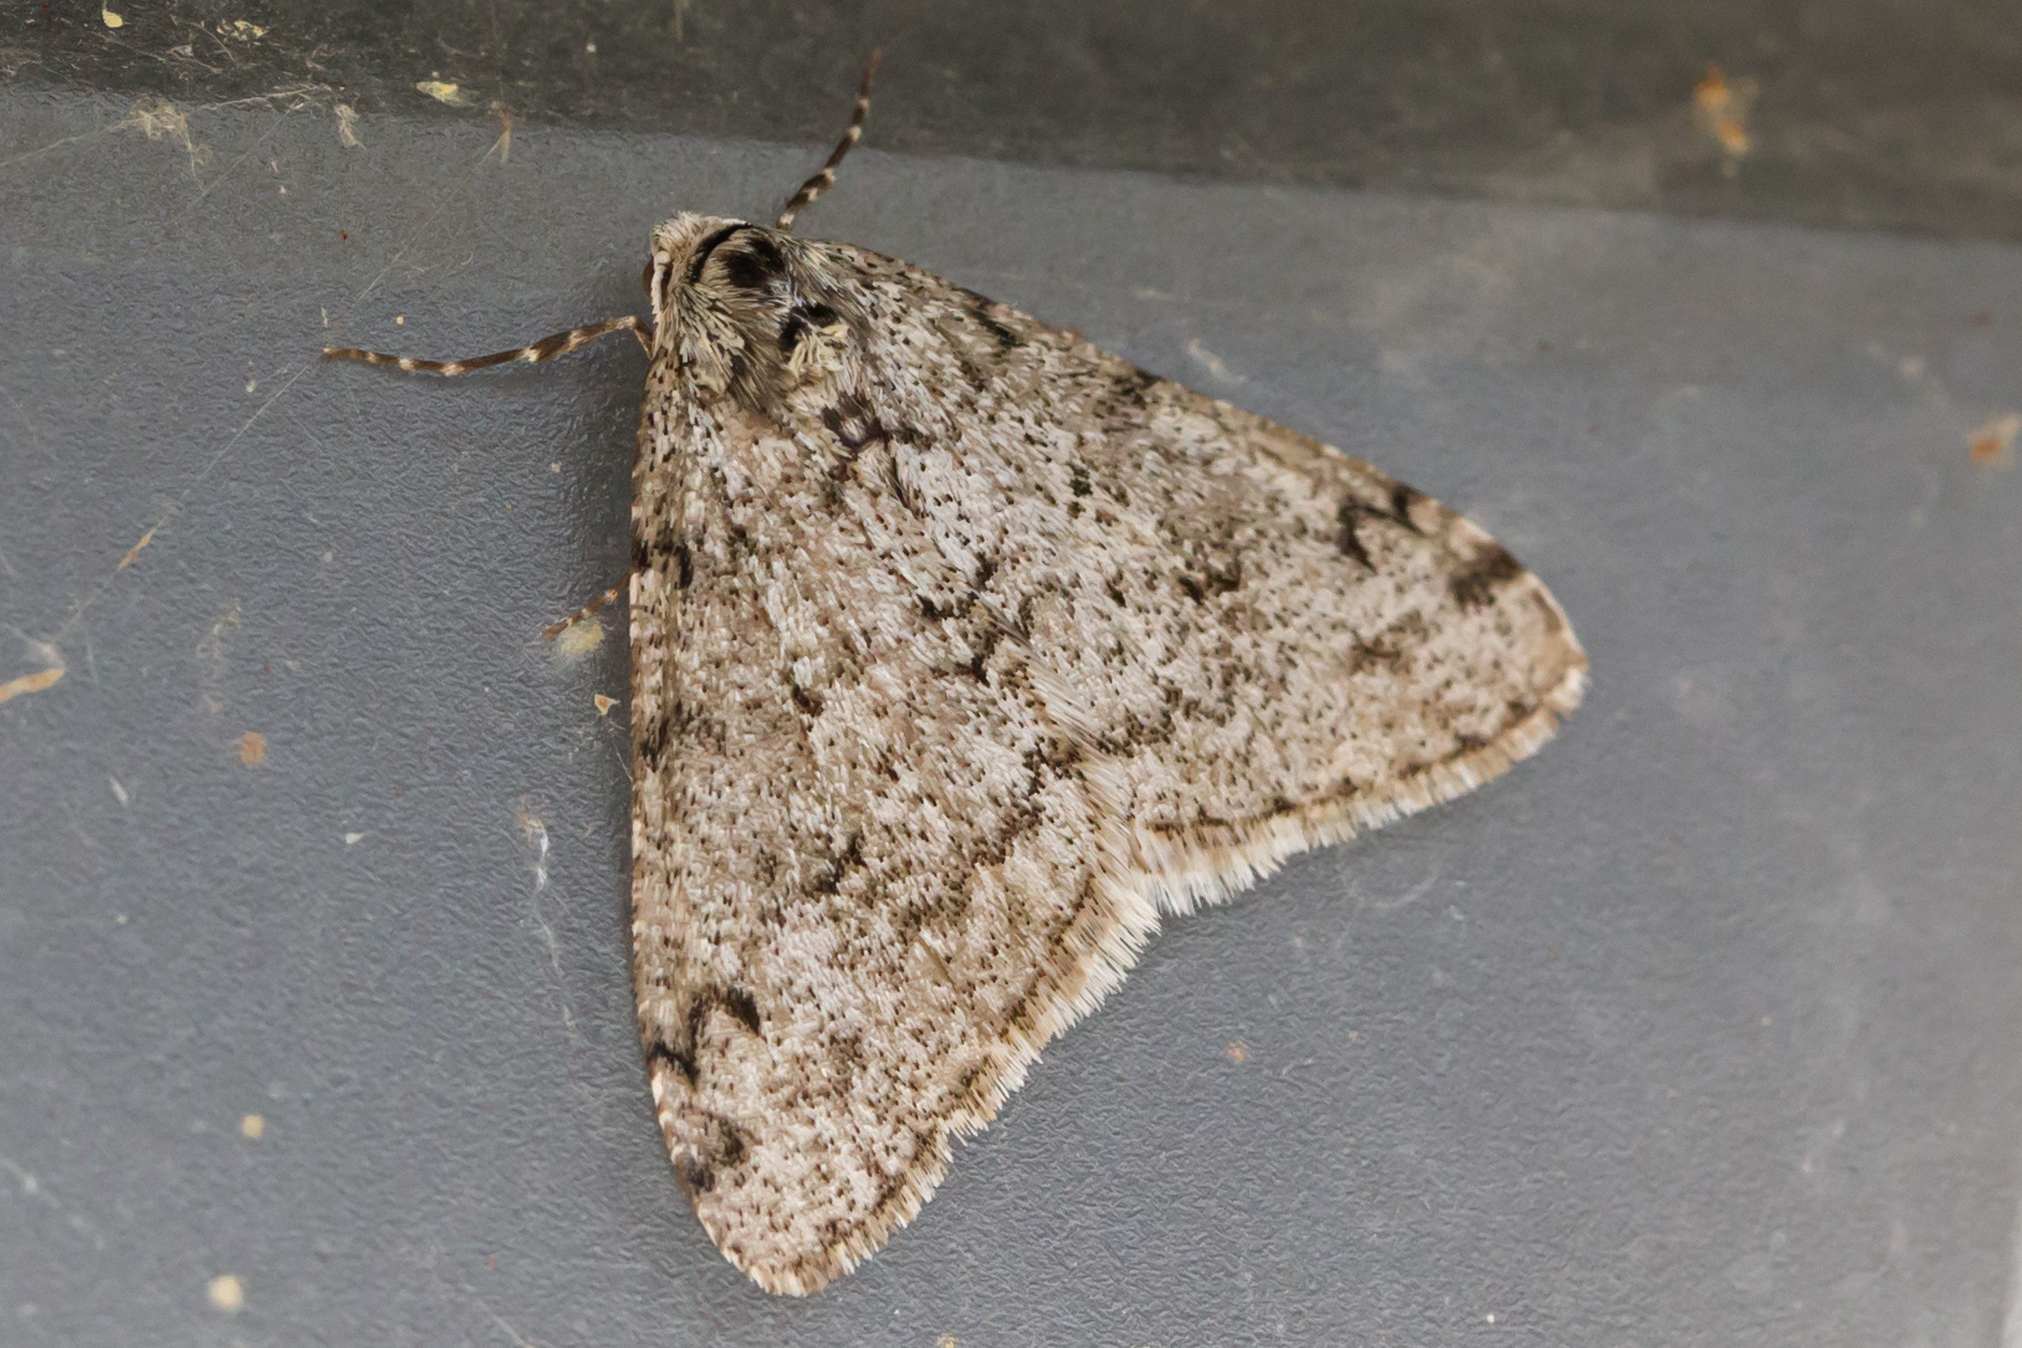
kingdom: Animalia
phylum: Arthropoda
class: Insecta
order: Lepidoptera
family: Geometridae
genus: Phigalia
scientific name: Phigalia strigataria
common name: Small phigalia
